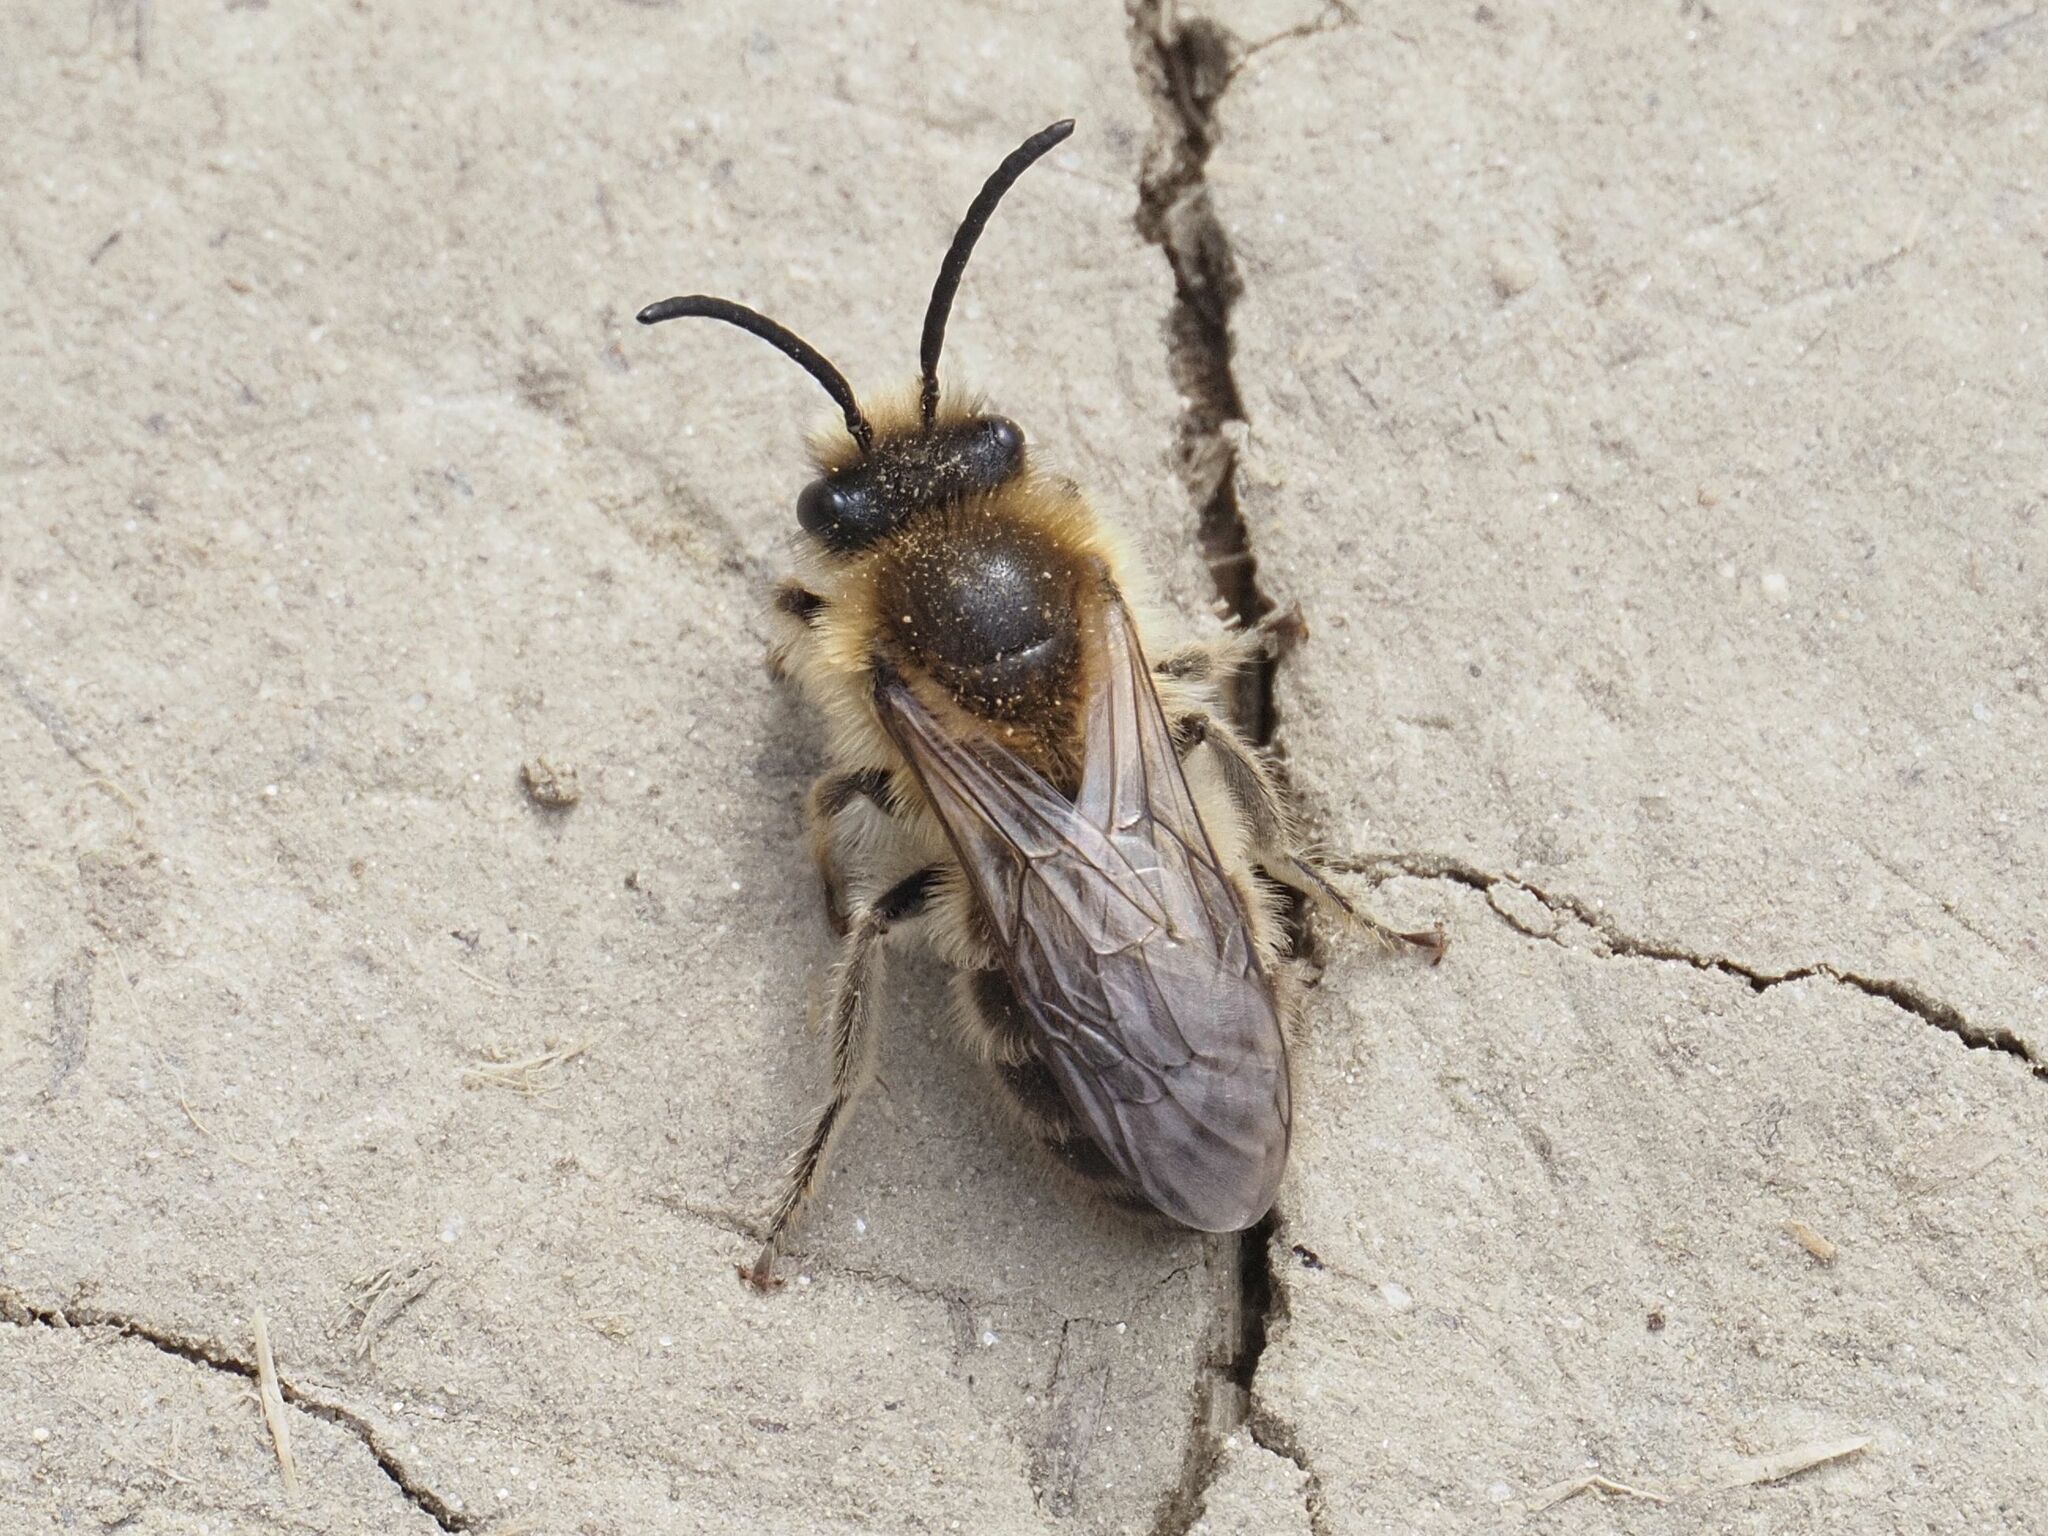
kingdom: Animalia
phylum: Arthropoda
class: Insecta
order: Hymenoptera
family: Colletidae
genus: Colletes
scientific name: Colletes cunicularius
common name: Early colletes
